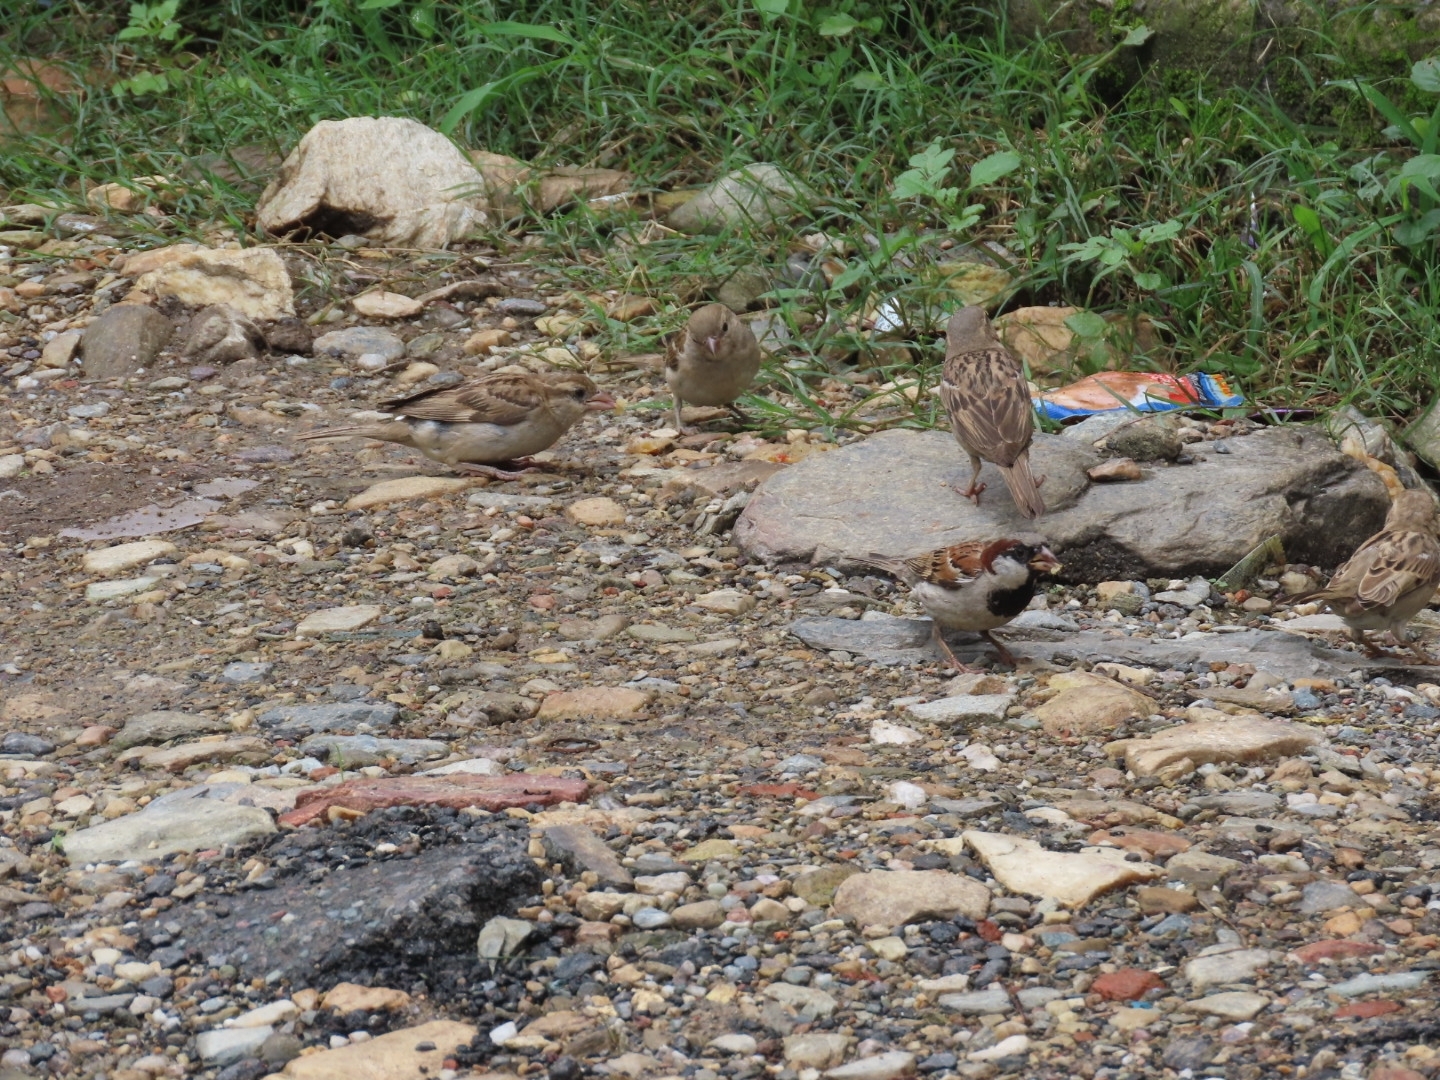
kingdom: Animalia
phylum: Chordata
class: Aves
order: Passeriformes
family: Passeridae
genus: Passer
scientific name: Passer domesticus
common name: House sparrow
